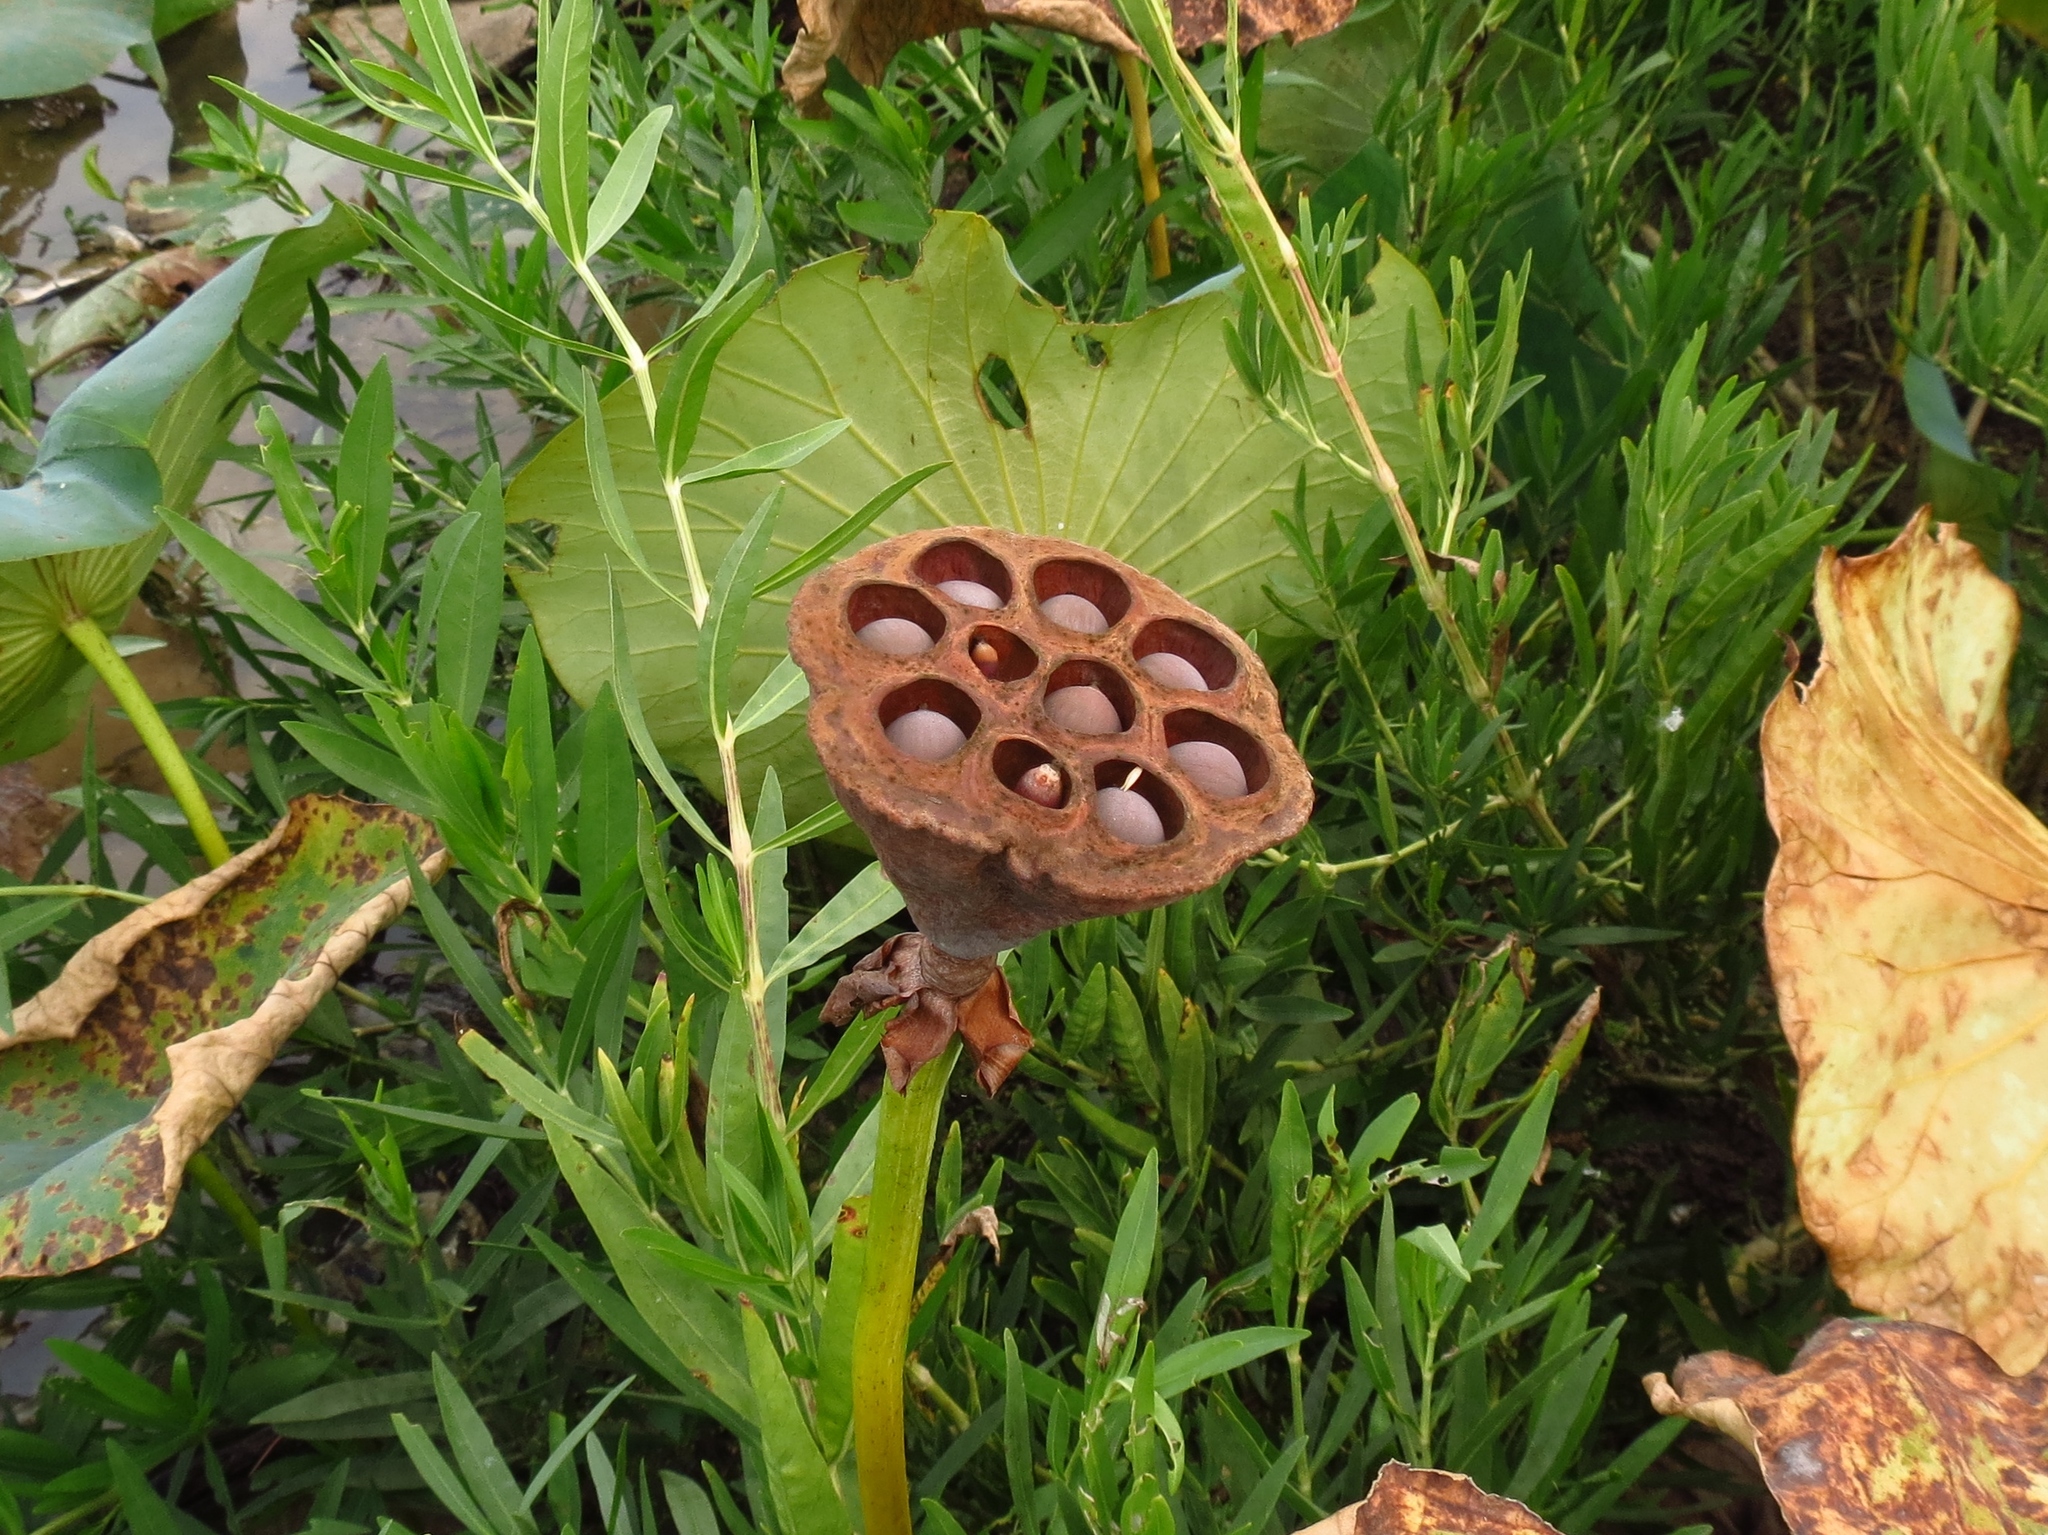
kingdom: Plantae
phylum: Tracheophyta
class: Magnoliopsida
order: Proteales
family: Nelumbonaceae
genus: Nelumbo
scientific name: Nelumbo lutea
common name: American lotus
